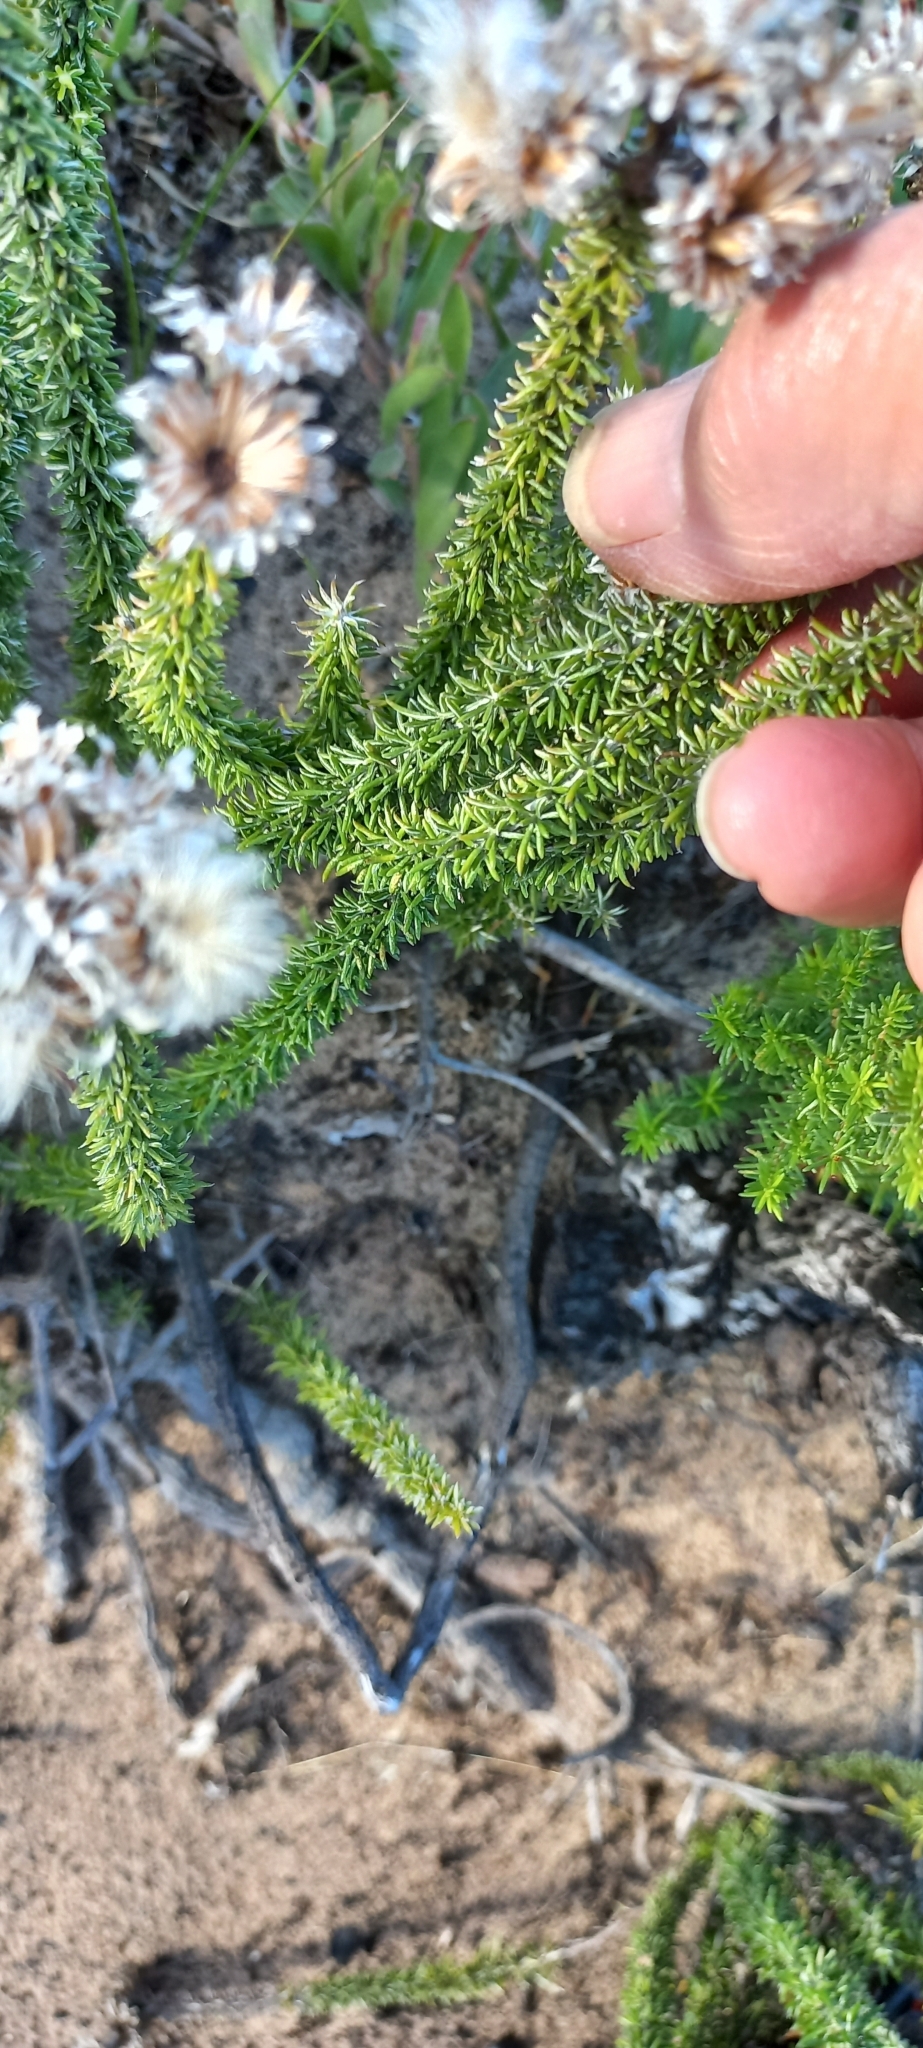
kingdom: Plantae
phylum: Tracheophyta
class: Magnoliopsida
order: Asterales
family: Asteraceae
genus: Lachnospermum
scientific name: Lachnospermum umbellatum
